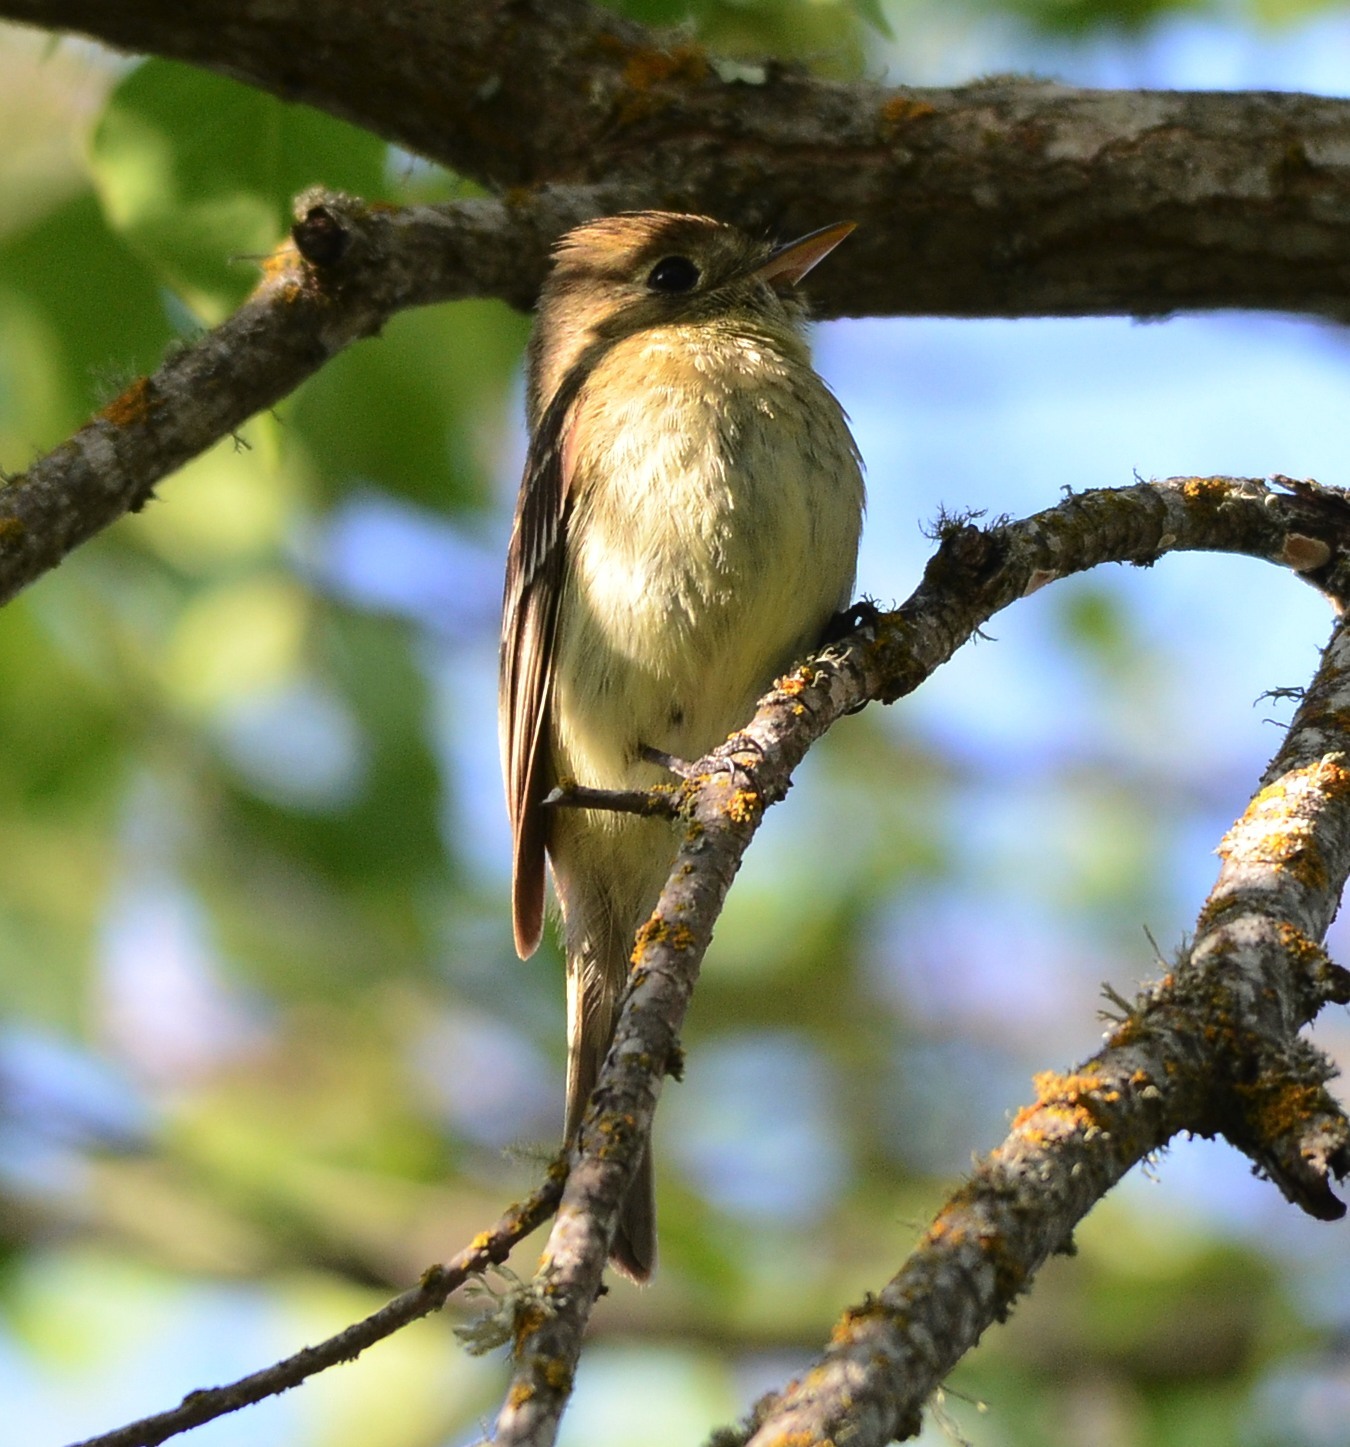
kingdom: Animalia
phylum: Chordata
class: Aves
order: Passeriformes
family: Tyrannidae
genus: Empidonax
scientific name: Empidonax difficilis
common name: Pacific-slope flycatcher
